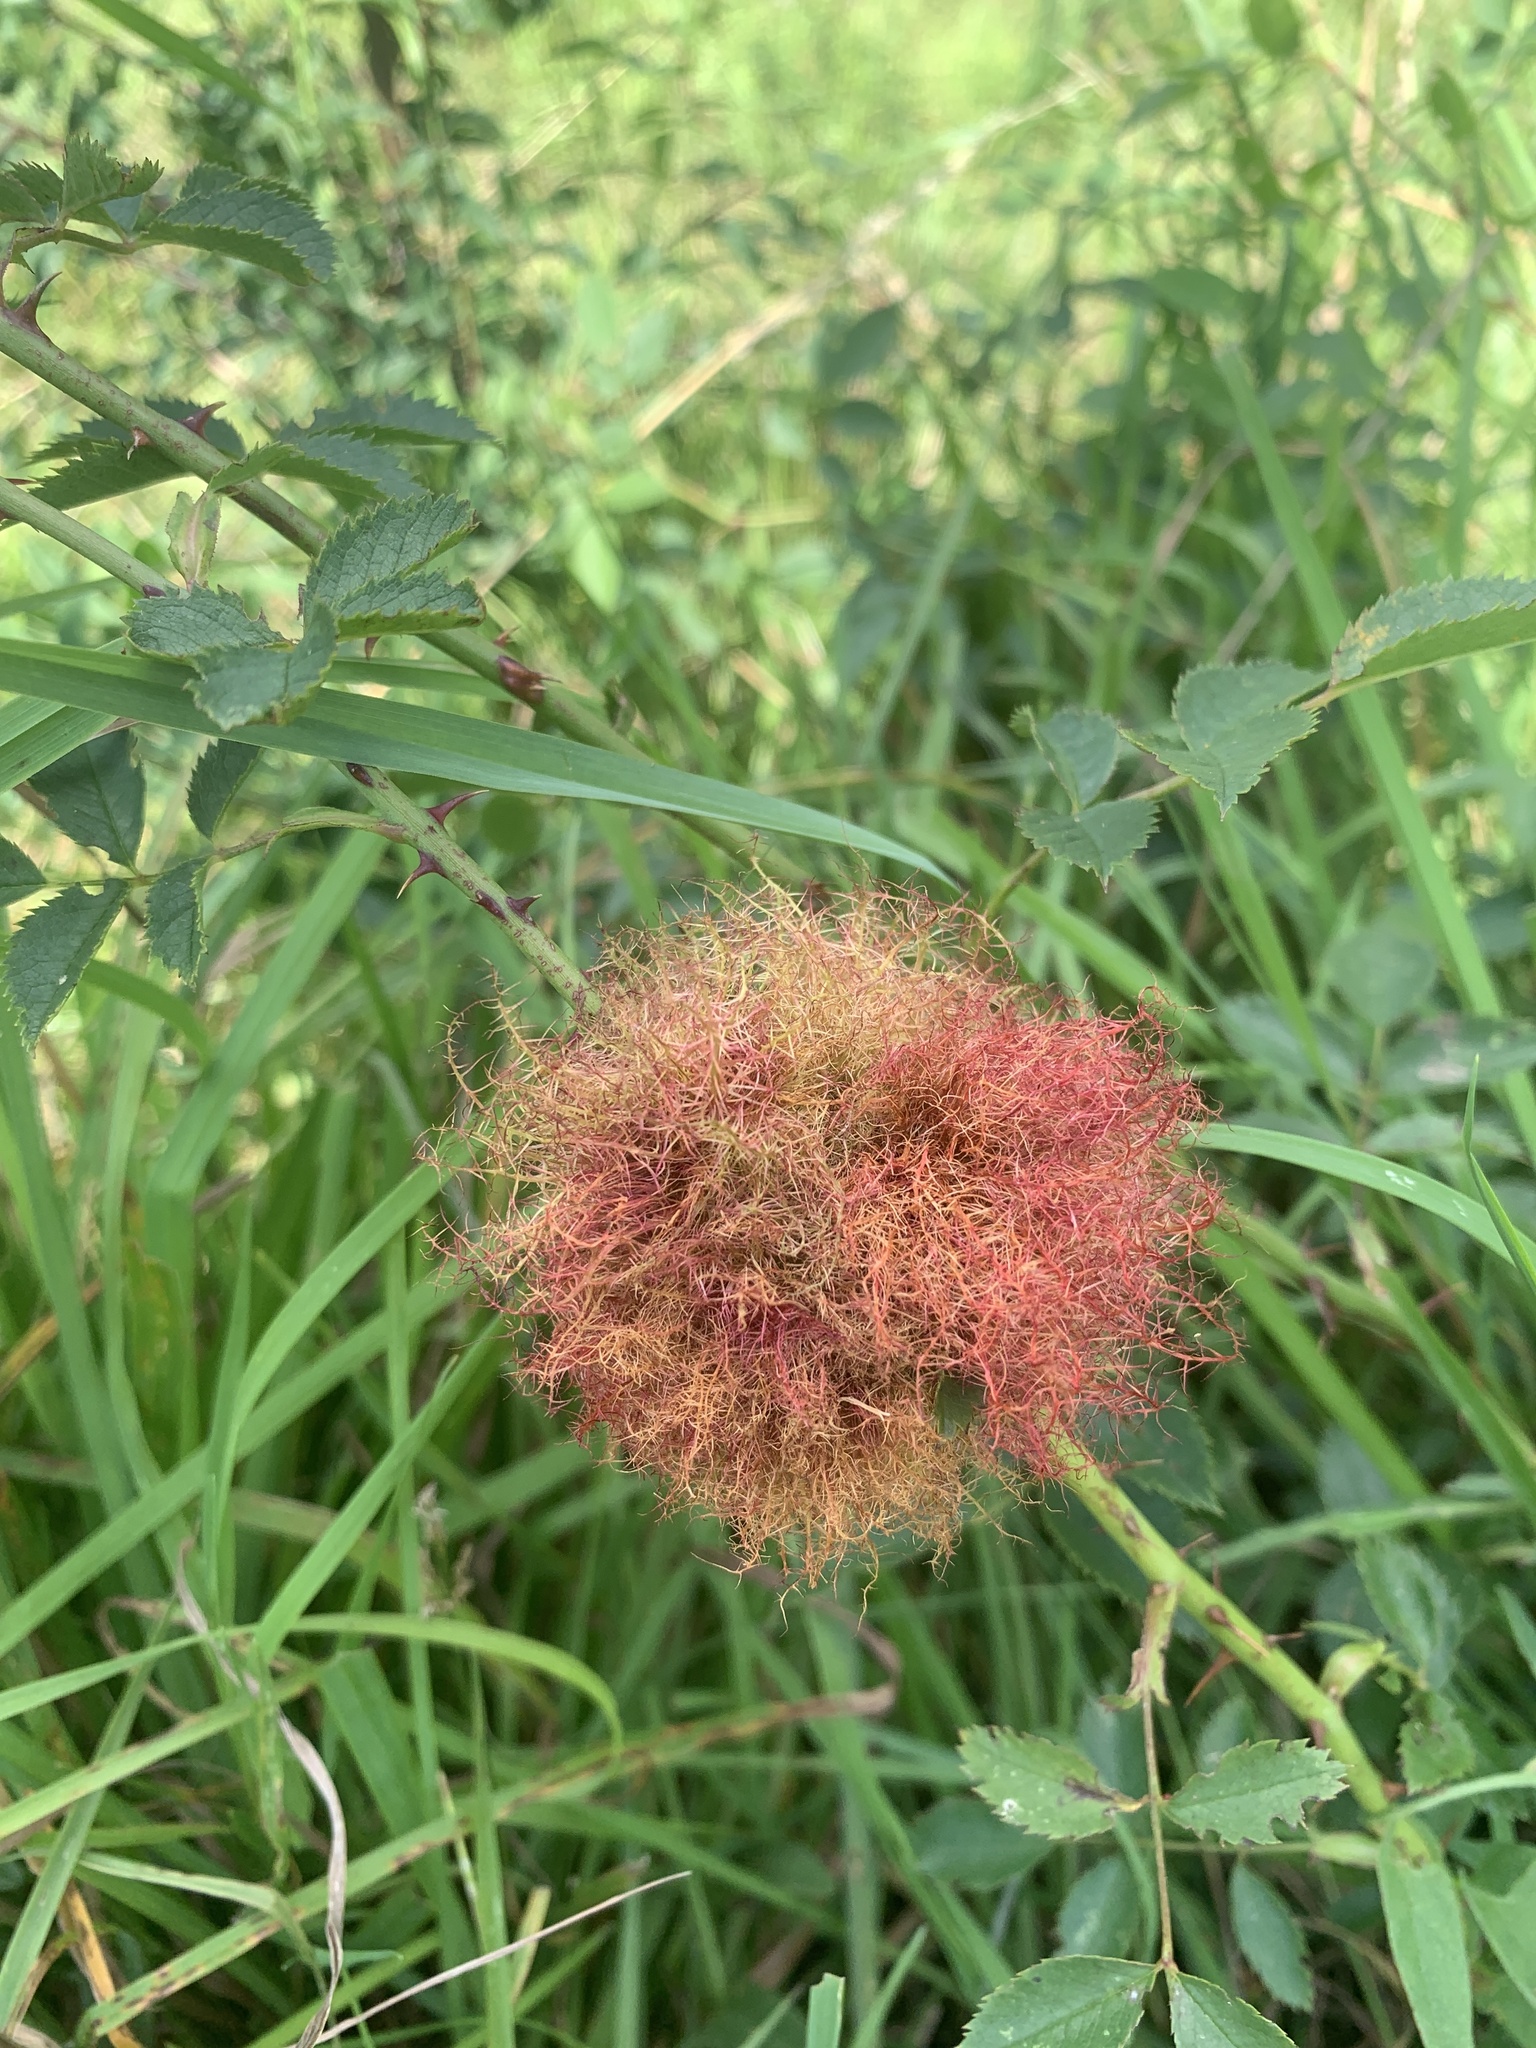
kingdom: Animalia
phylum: Arthropoda
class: Insecta
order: Hymenoptera
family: Cynipidae
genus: Diplolepis
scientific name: Diplolepis rosae
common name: Bedeguar gall
